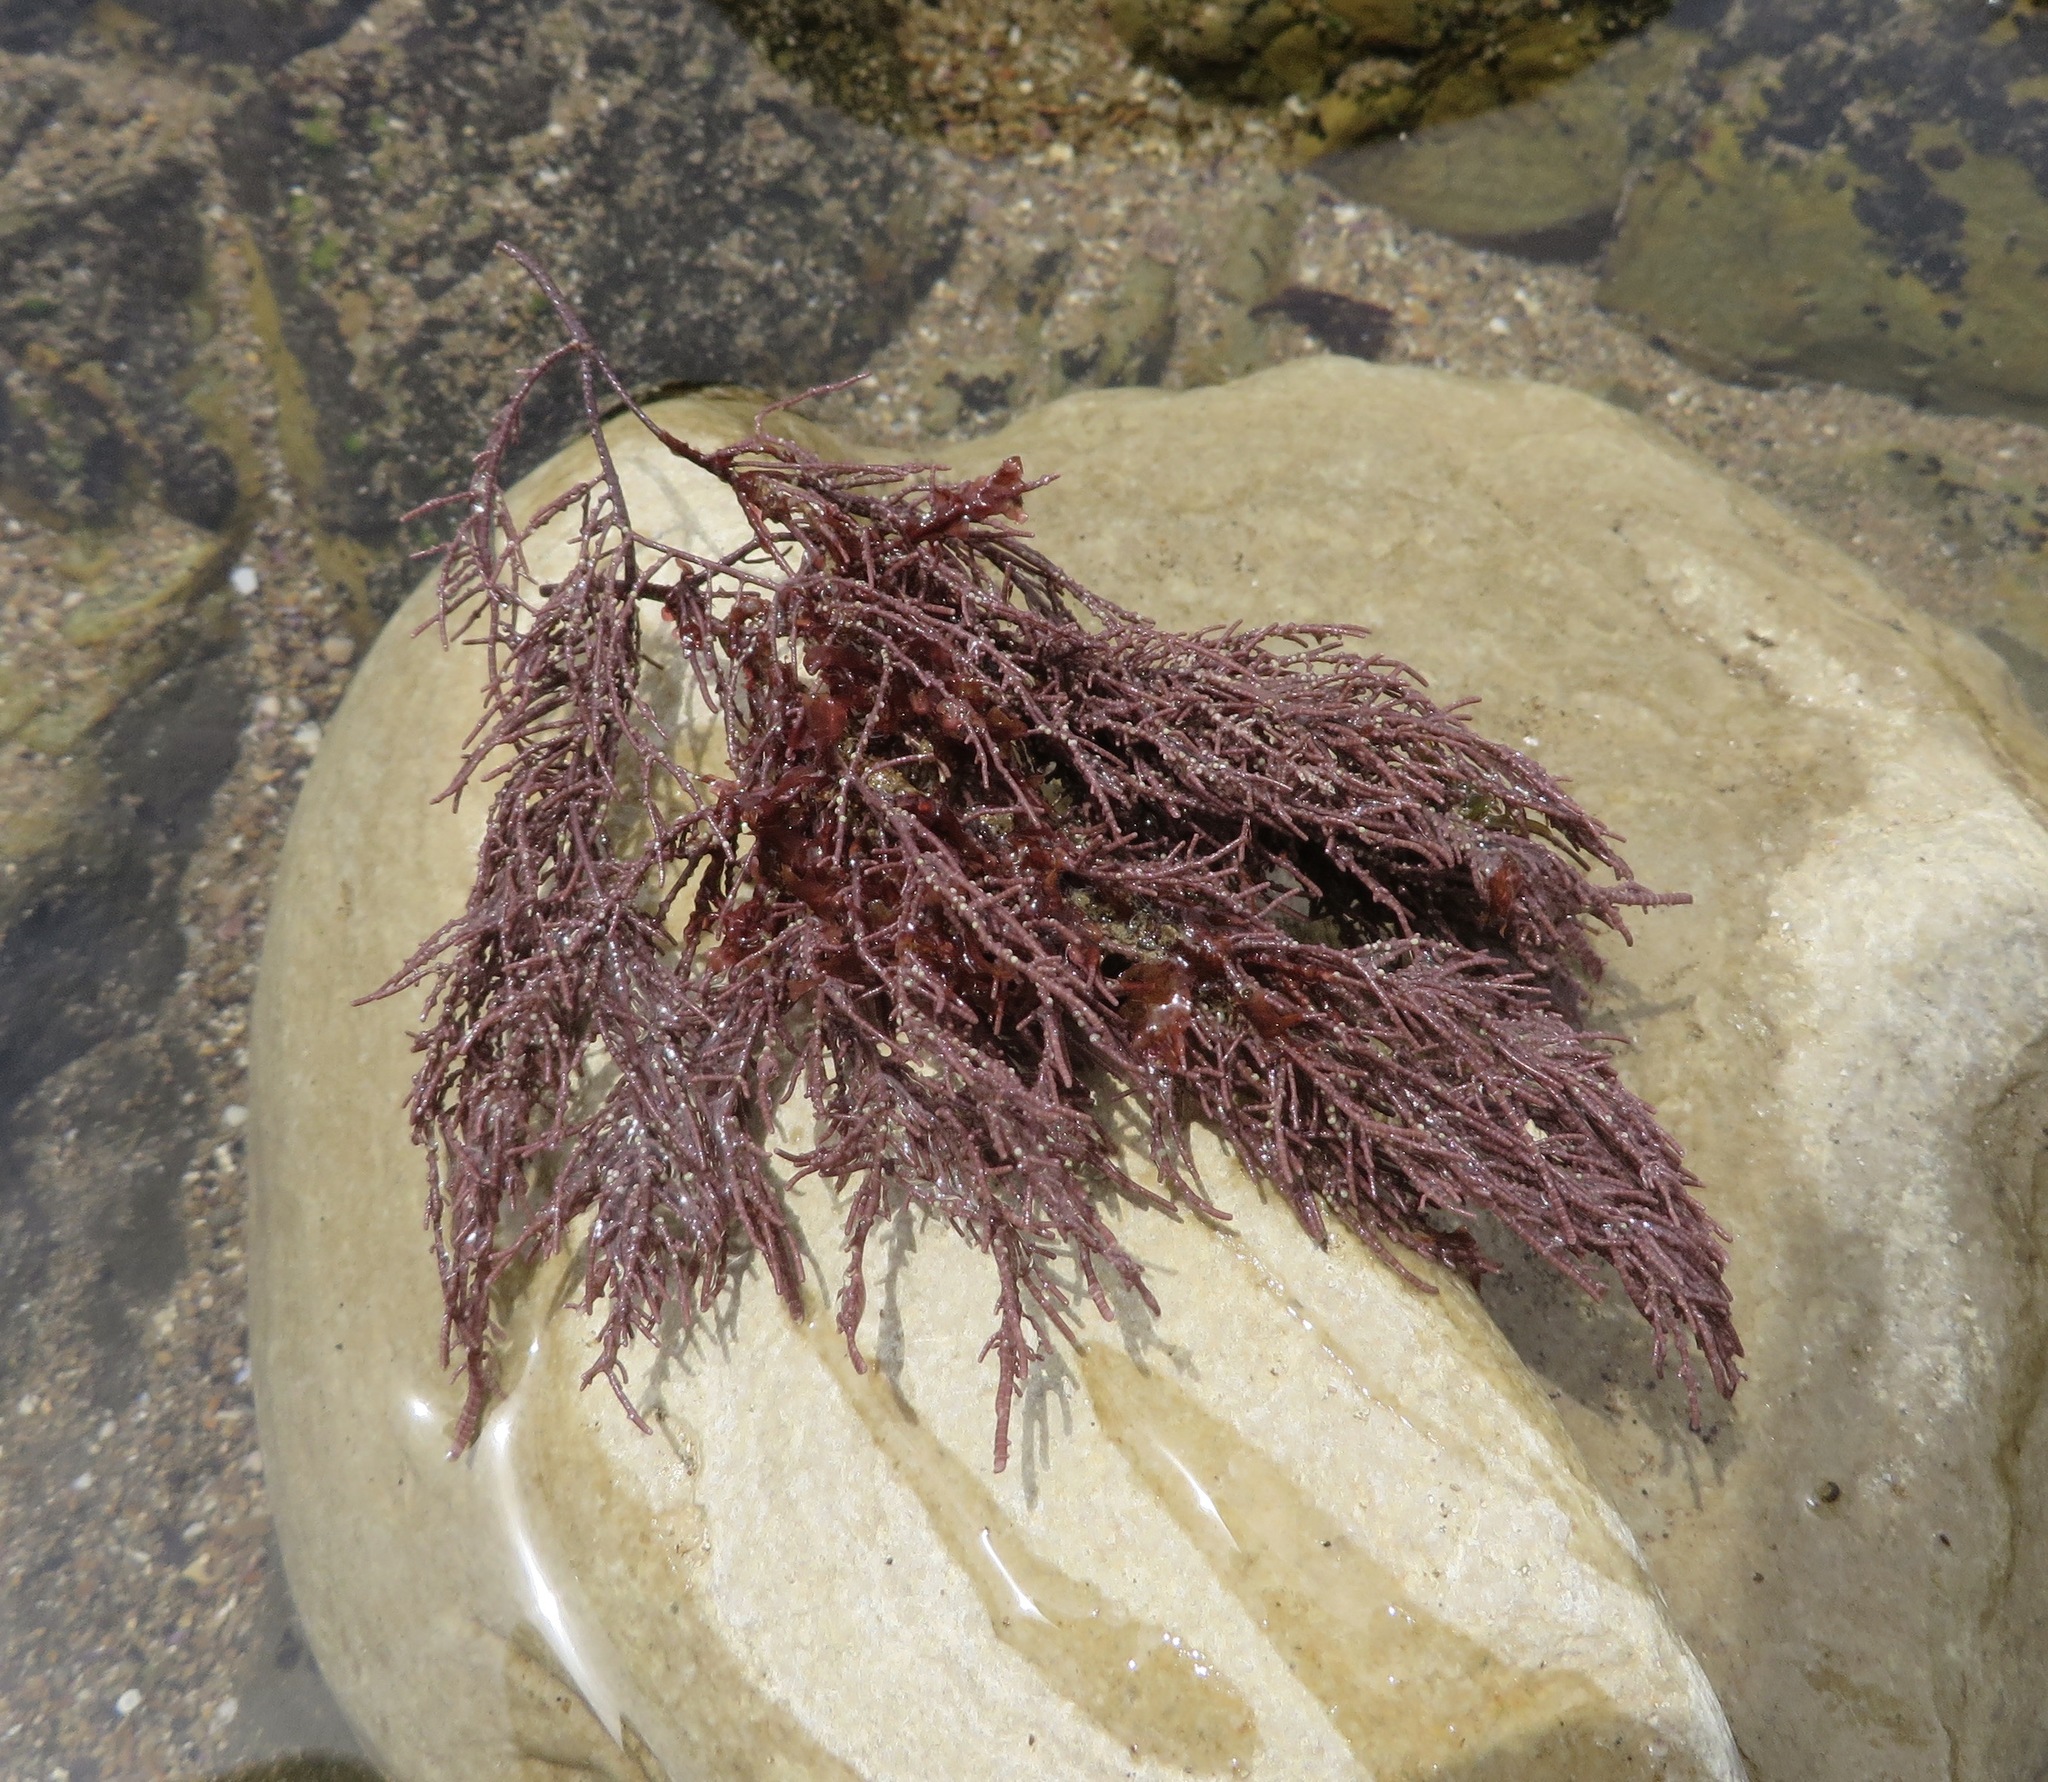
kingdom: Plantae
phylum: Rhodophyta
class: Florideophyceae
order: Corallinales
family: Lithophyllaceae
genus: Lithothrix
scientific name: Lithothrix aspergillum
